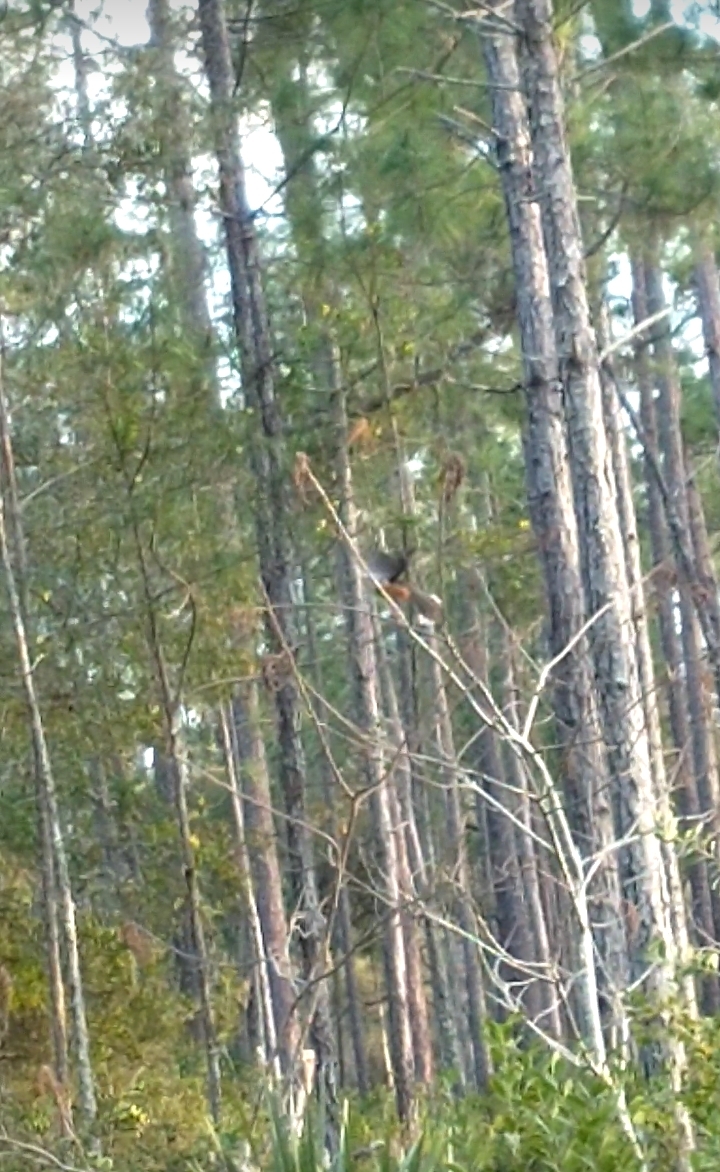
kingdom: Animalia
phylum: Chordata
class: Aves
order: Passeriformes
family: Passerellidae
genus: Pipilo
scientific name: Pipilo erythrophthalmus
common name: Eastern towhee
